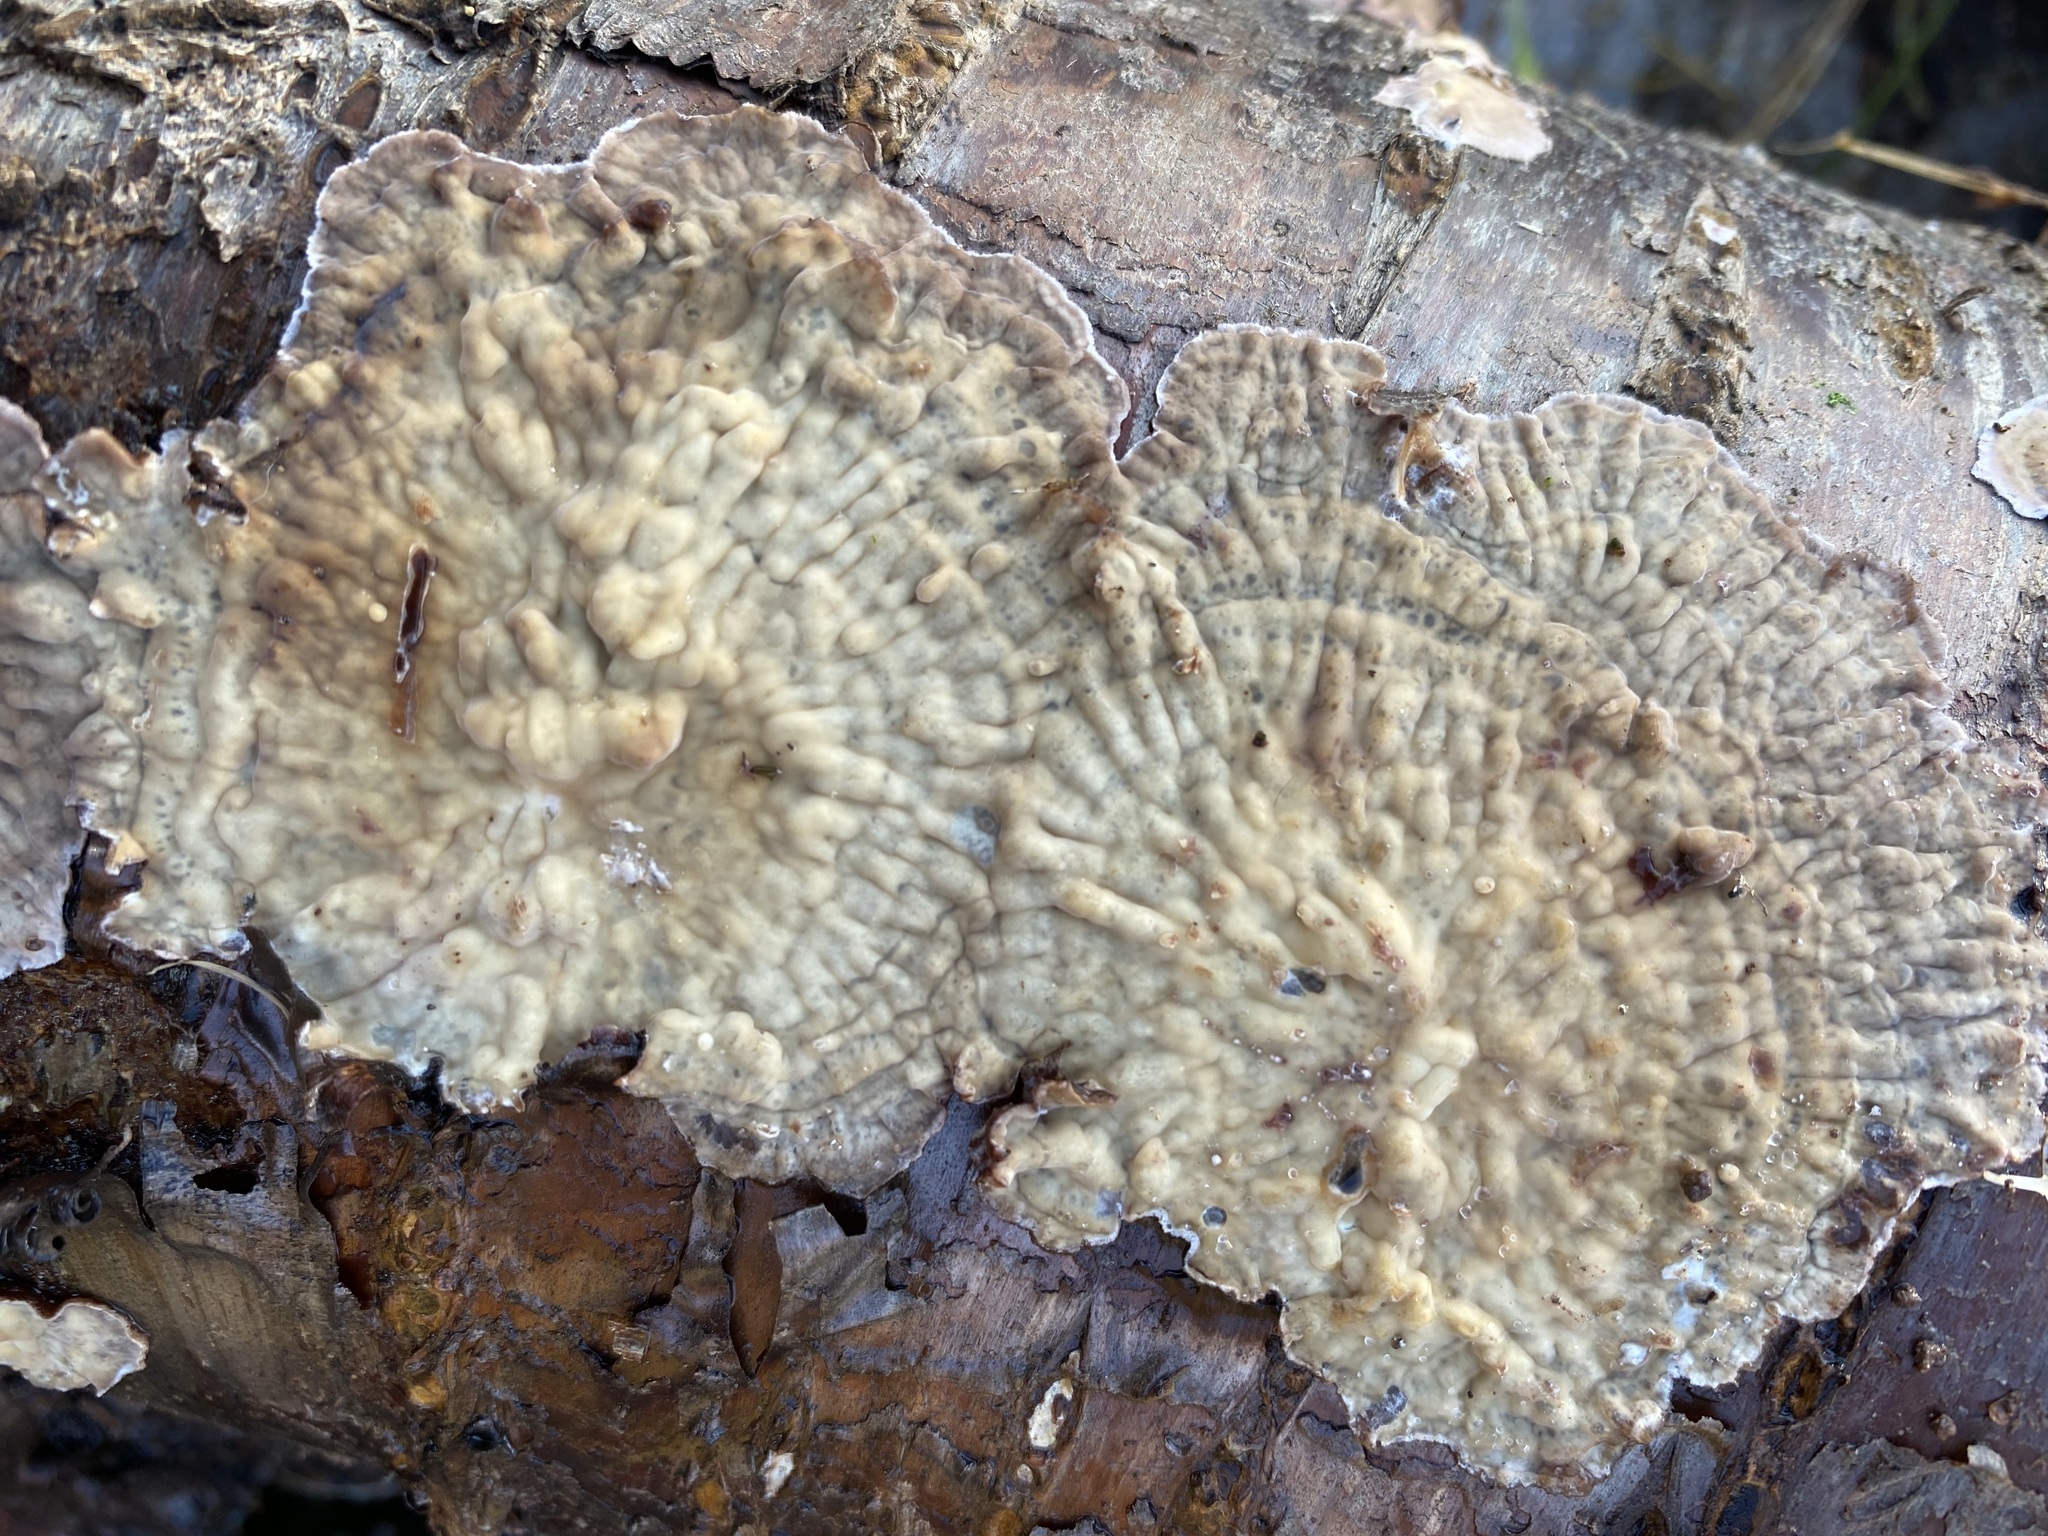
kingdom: Fungi
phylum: Basidiomycota
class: Agaricomycetes
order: Polyporales
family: Meruliaceae
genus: Phlebia
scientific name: Phlebia radiata
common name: Wrinkled crust
